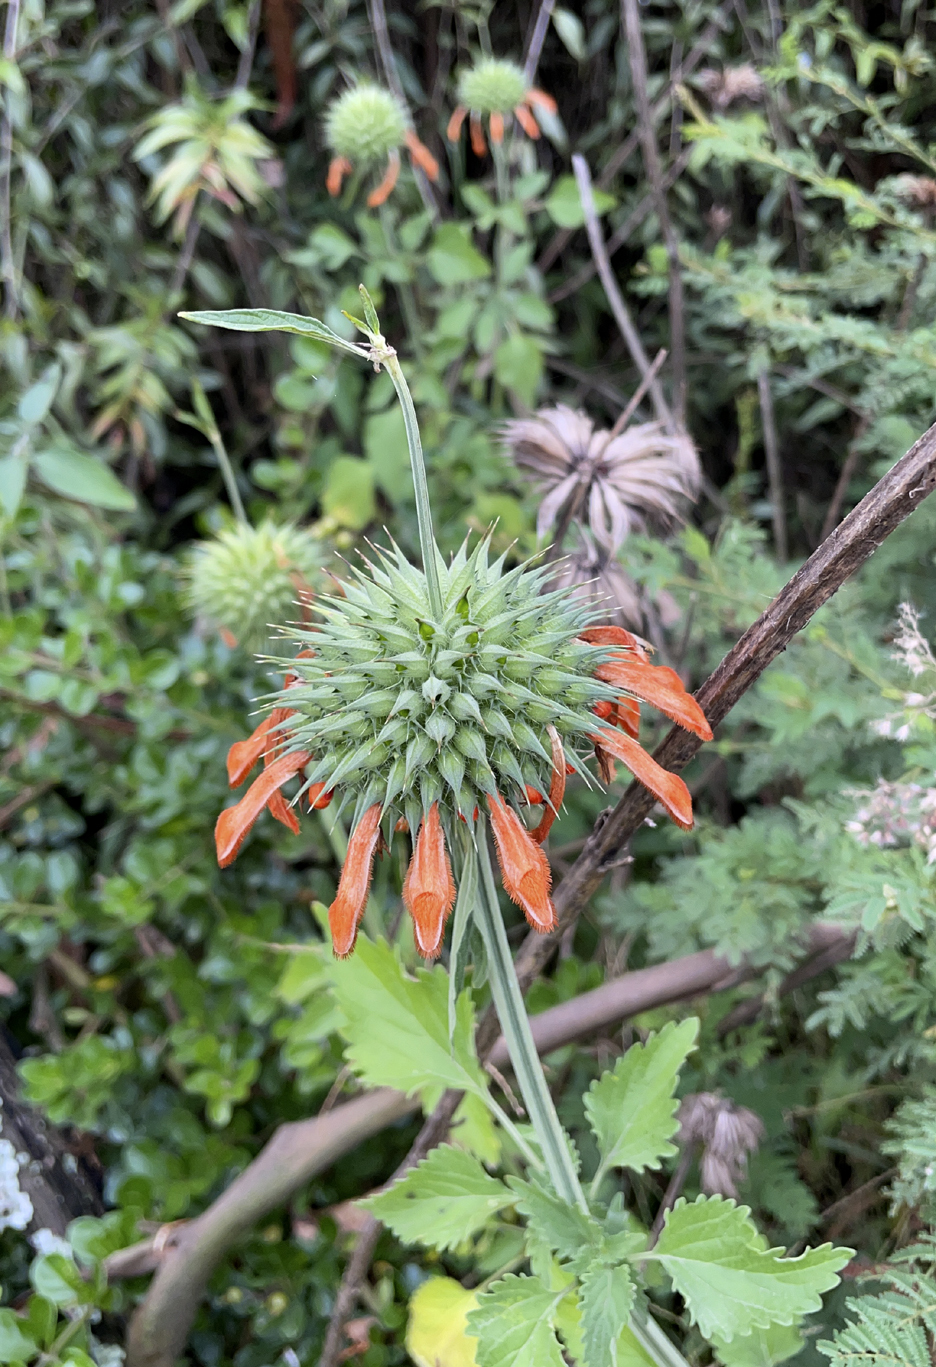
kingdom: Plantae
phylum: Tracheophyta
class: Magnoliopsida
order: Lamiales
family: Lamiaceae
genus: Leonotis
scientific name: Leonotis nepetifolia
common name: Christmas candlestick
